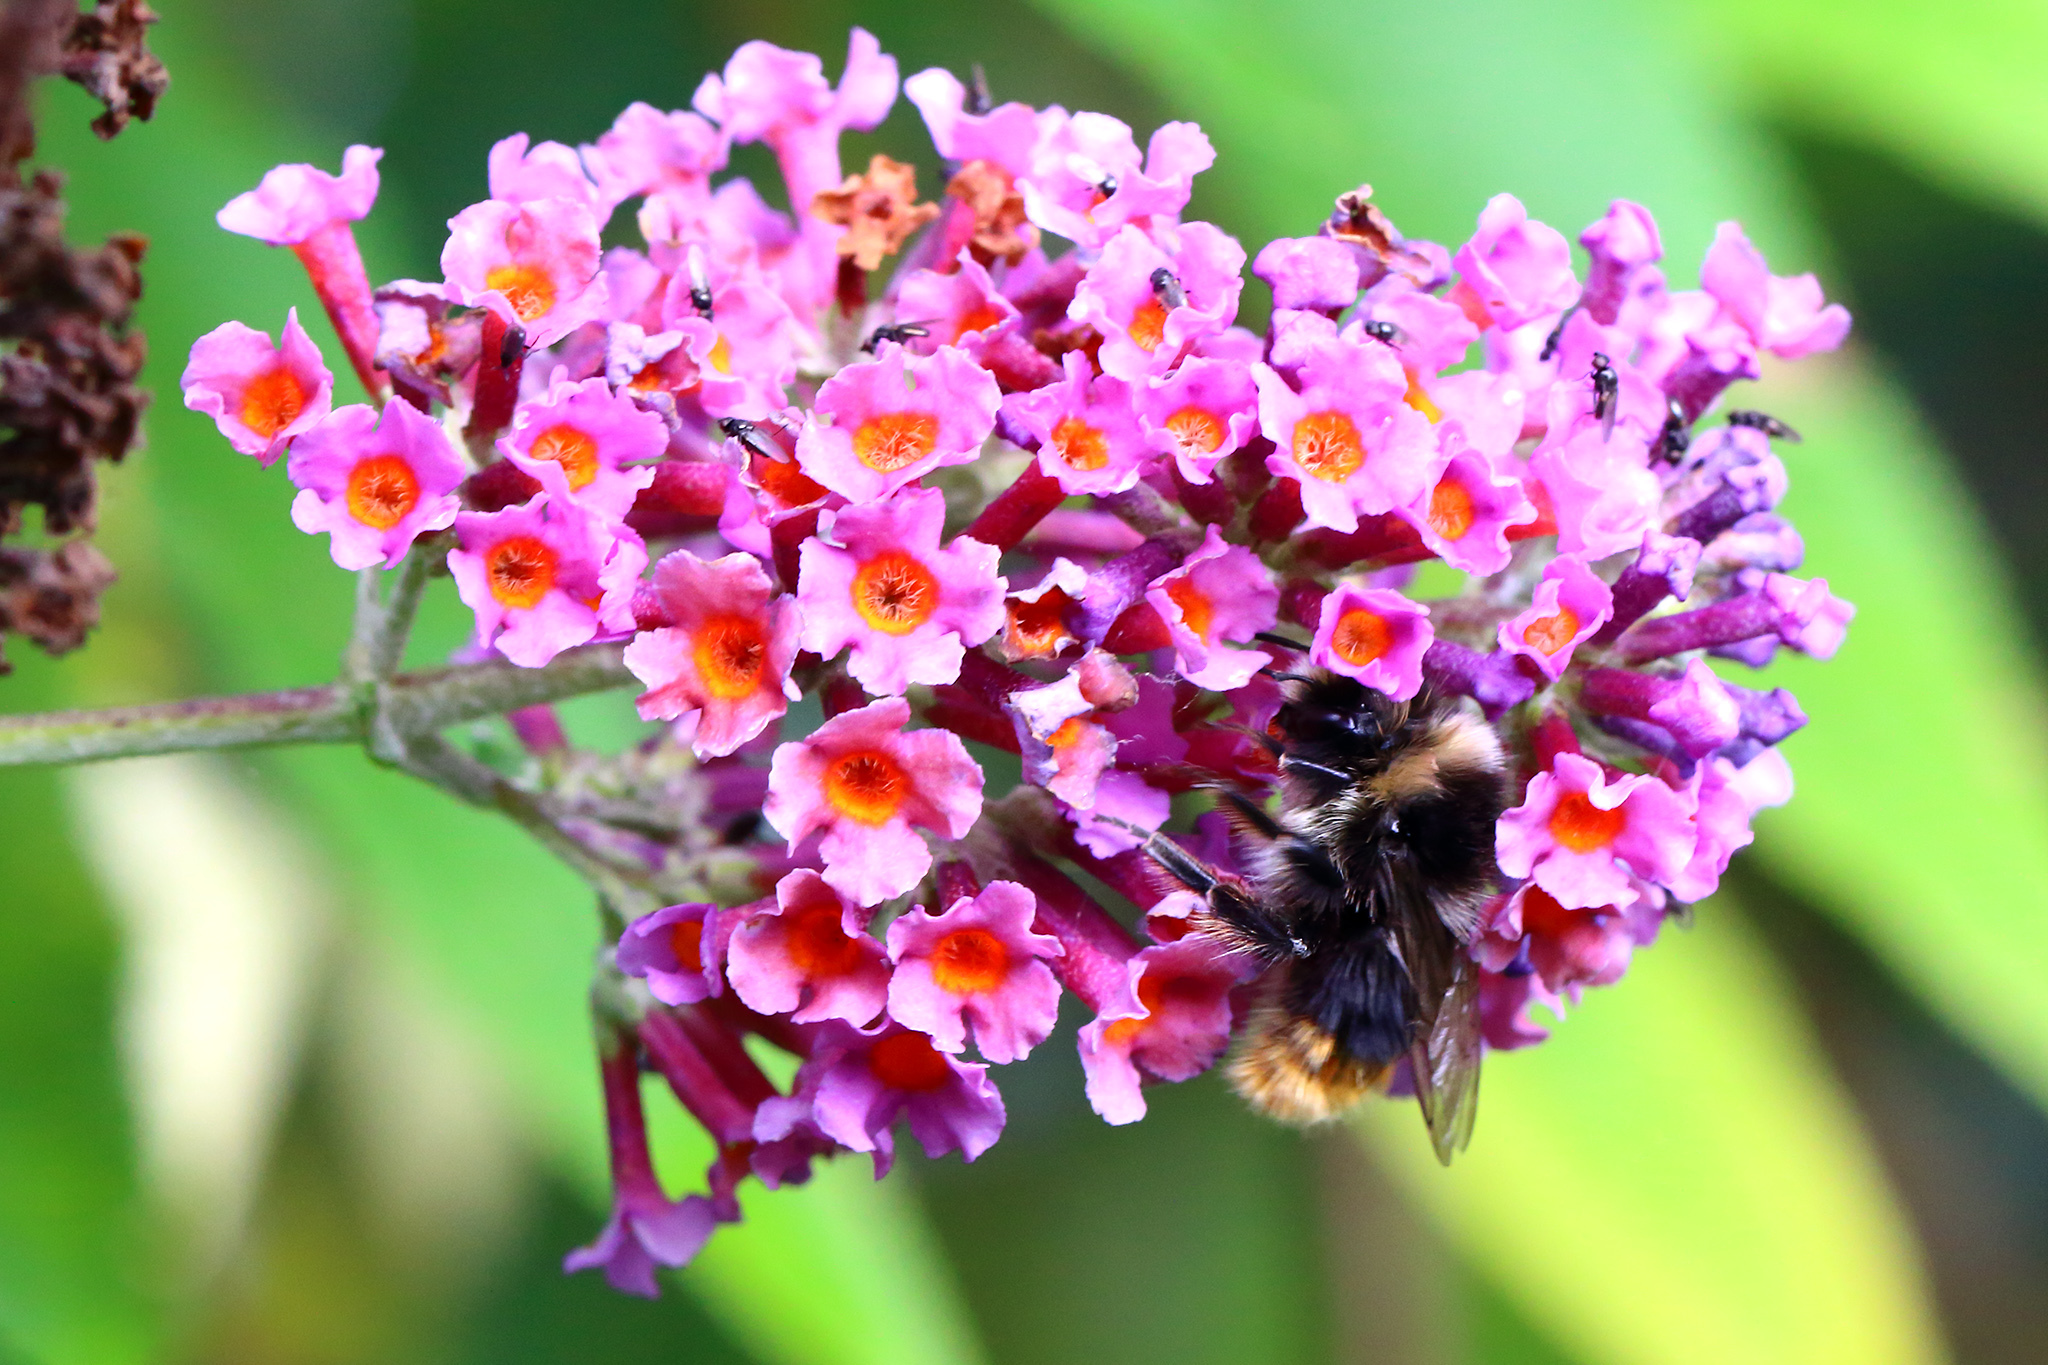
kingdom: Animalia
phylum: Arthropoda
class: Insecta
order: Hymenoptera
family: Apidae
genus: Bombus
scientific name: Bombus lapidarius
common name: Large red-tailed humble-bee
